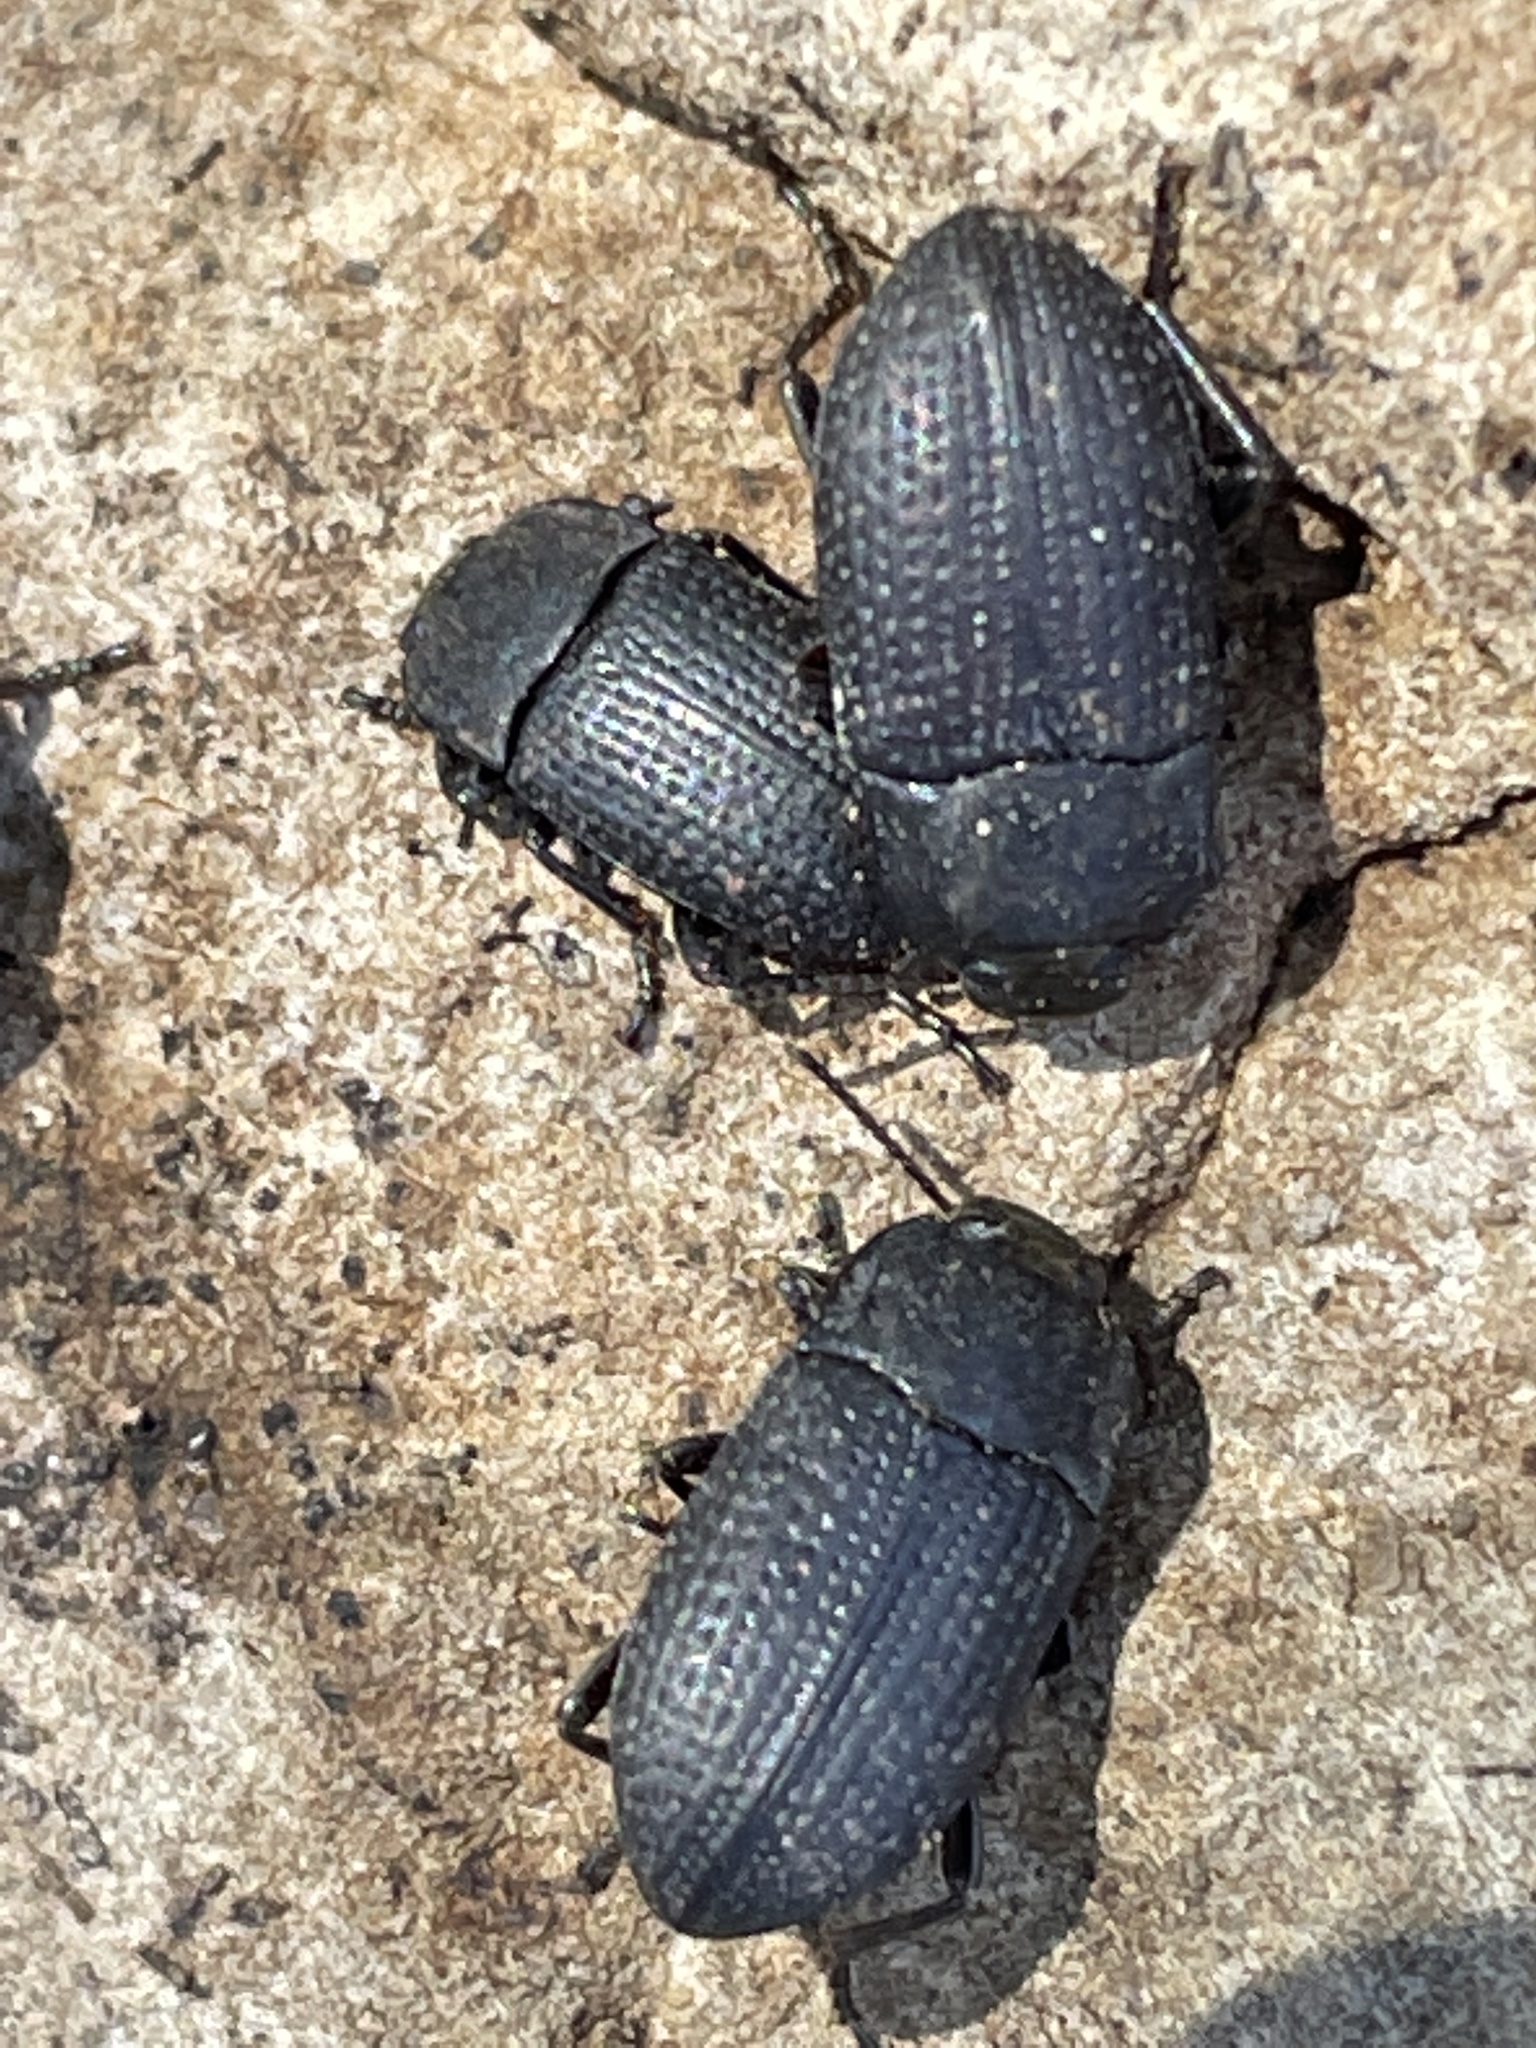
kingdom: Animalia
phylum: Arthropoda
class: Insecta
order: Coleoptera
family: Tenebrionidae
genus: Asiopus
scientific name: Asiopus
